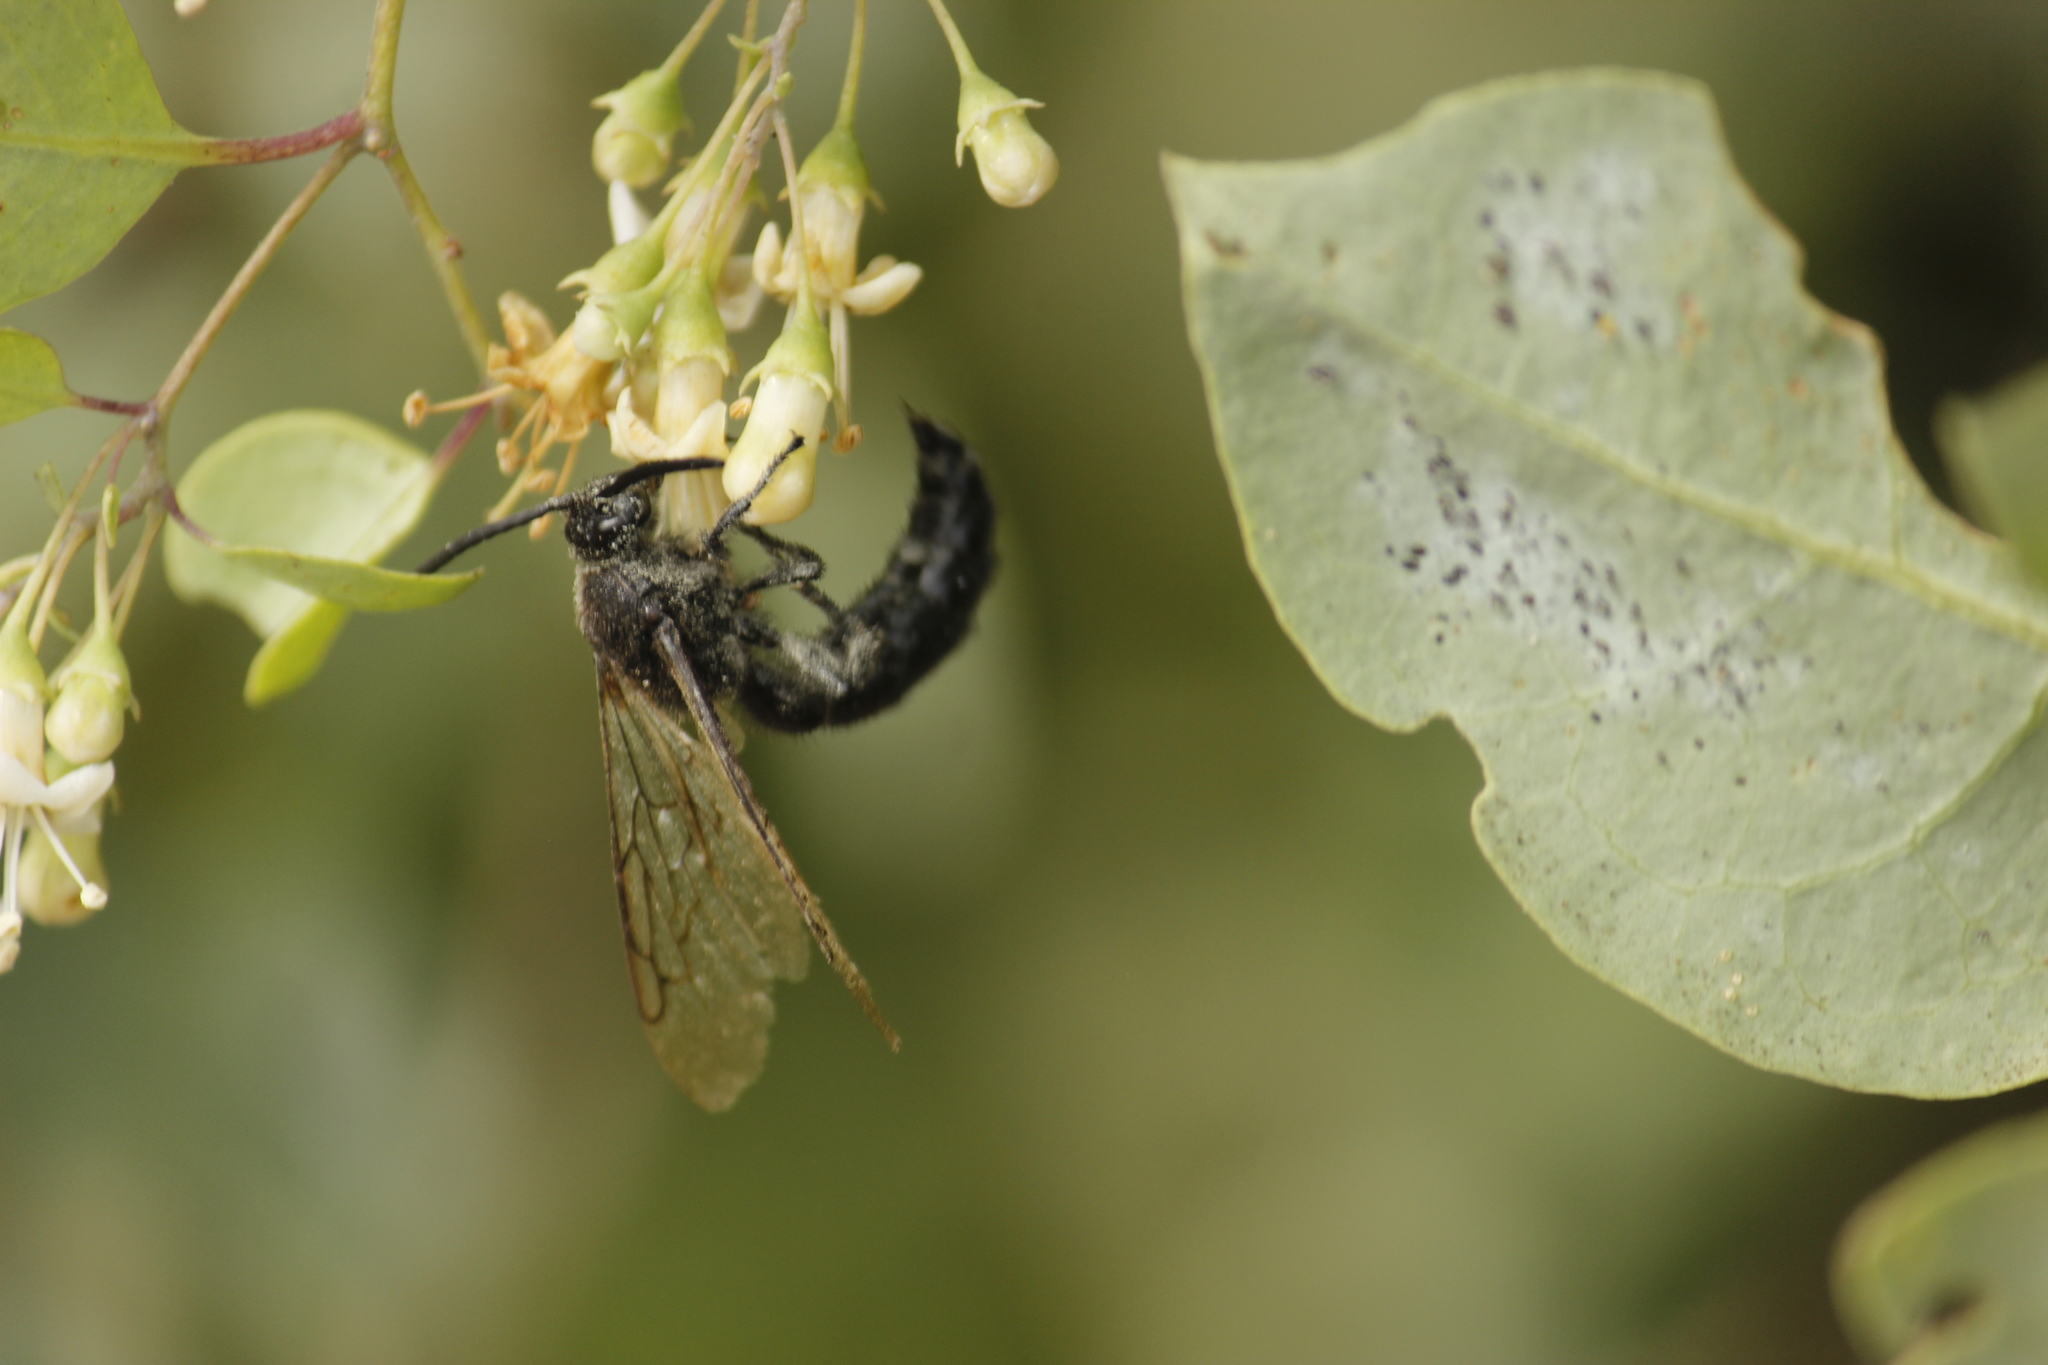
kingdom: Animalia
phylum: Arthropoda
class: Insecta
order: Hymenoptera
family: Scoliidae
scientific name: Scoliidae
